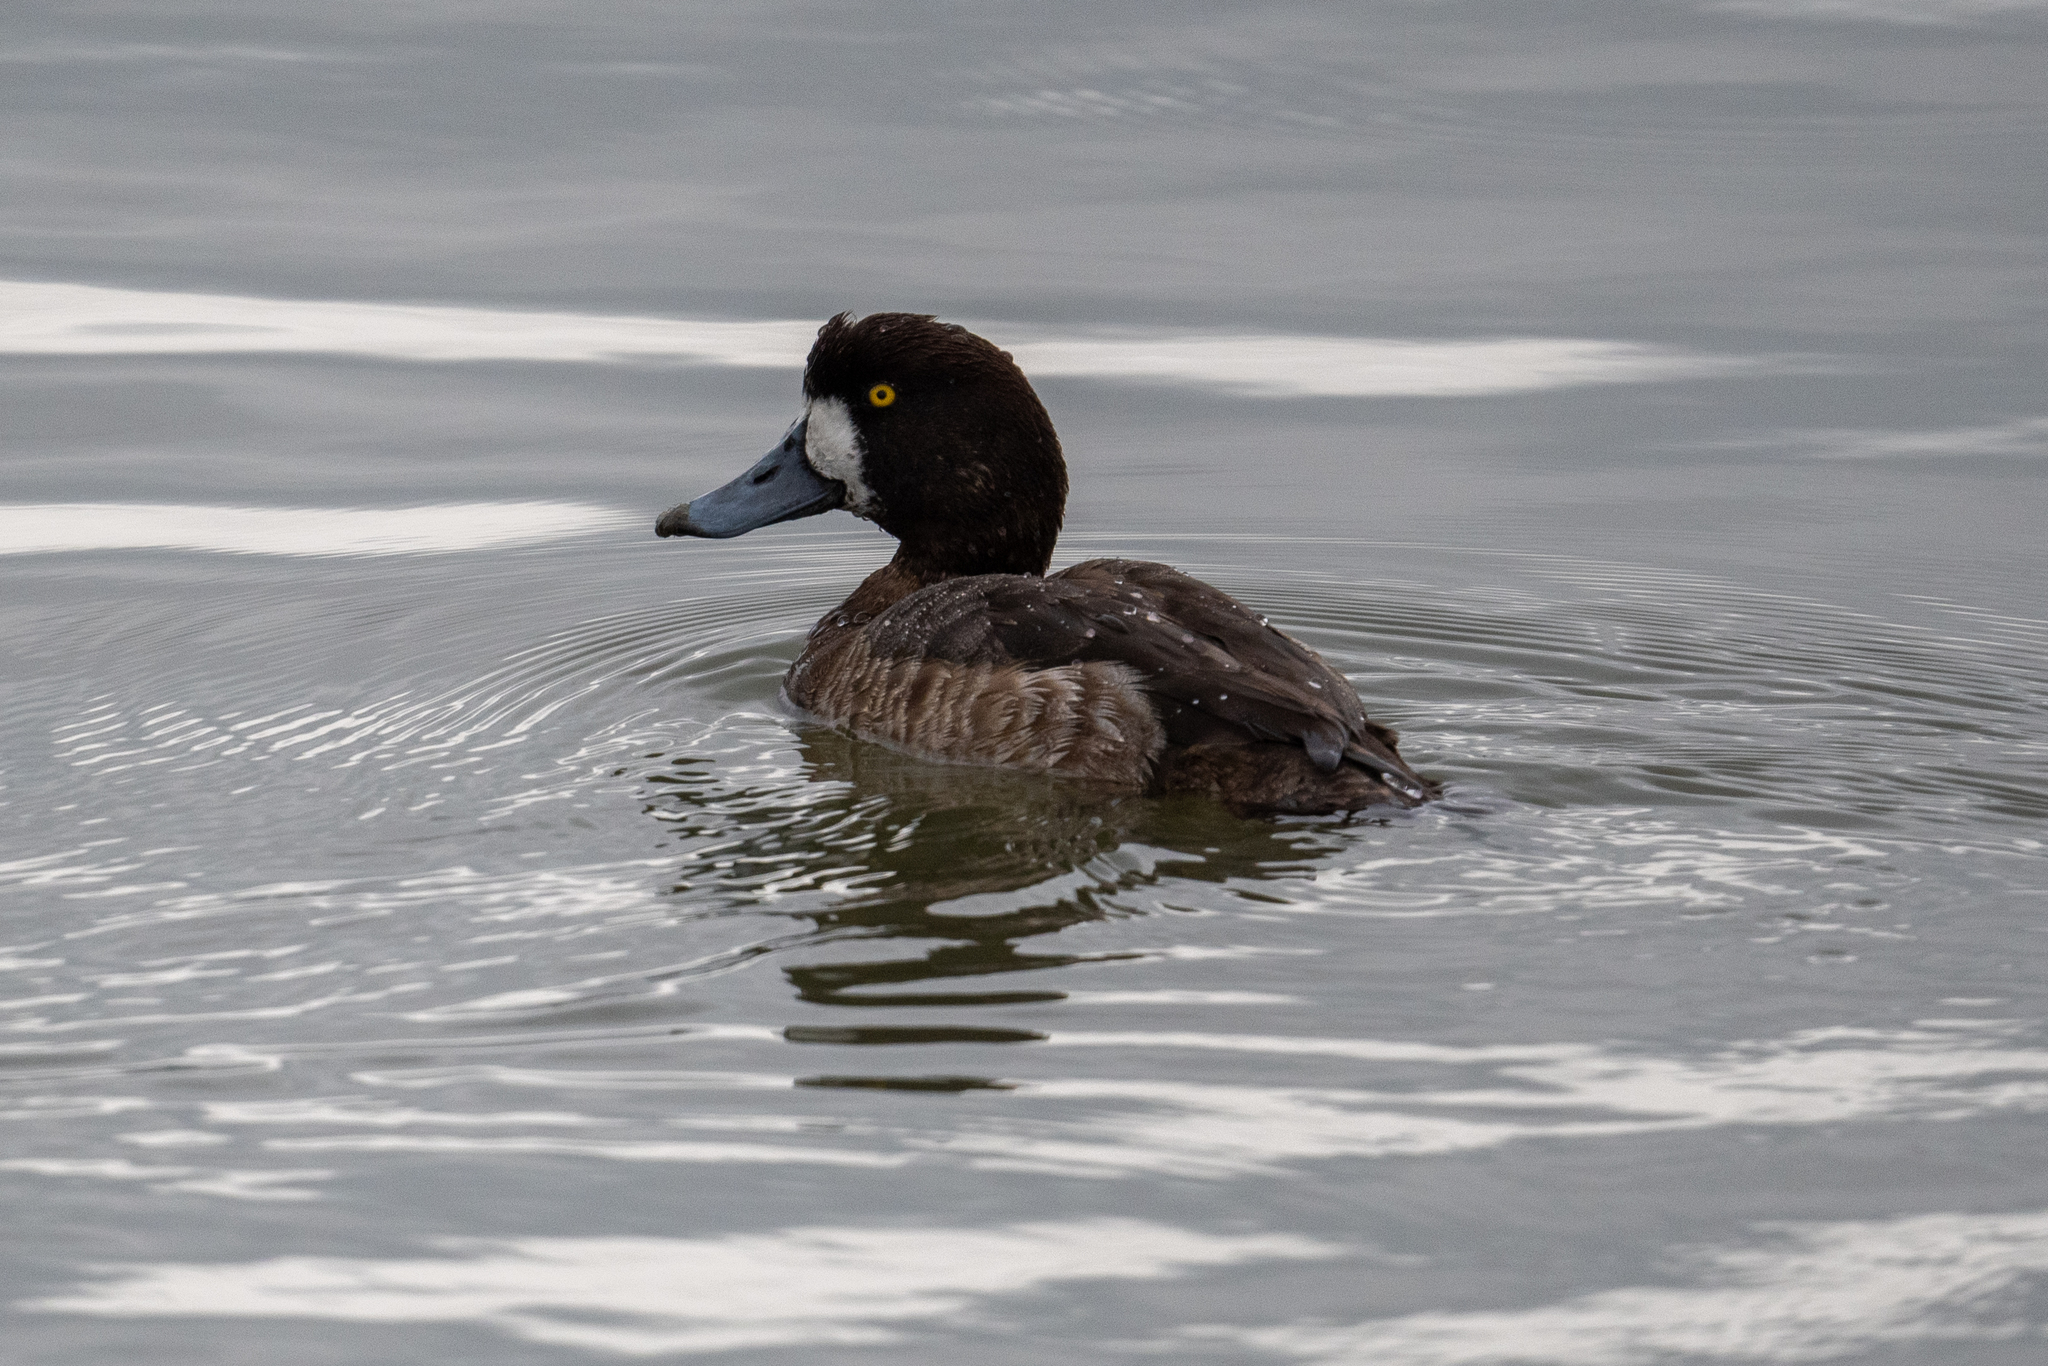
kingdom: Animalia
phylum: Chordata
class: Aves
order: Anseriformes
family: Anatidae
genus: Aythya
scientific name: Aythya marila
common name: Greater scaup
